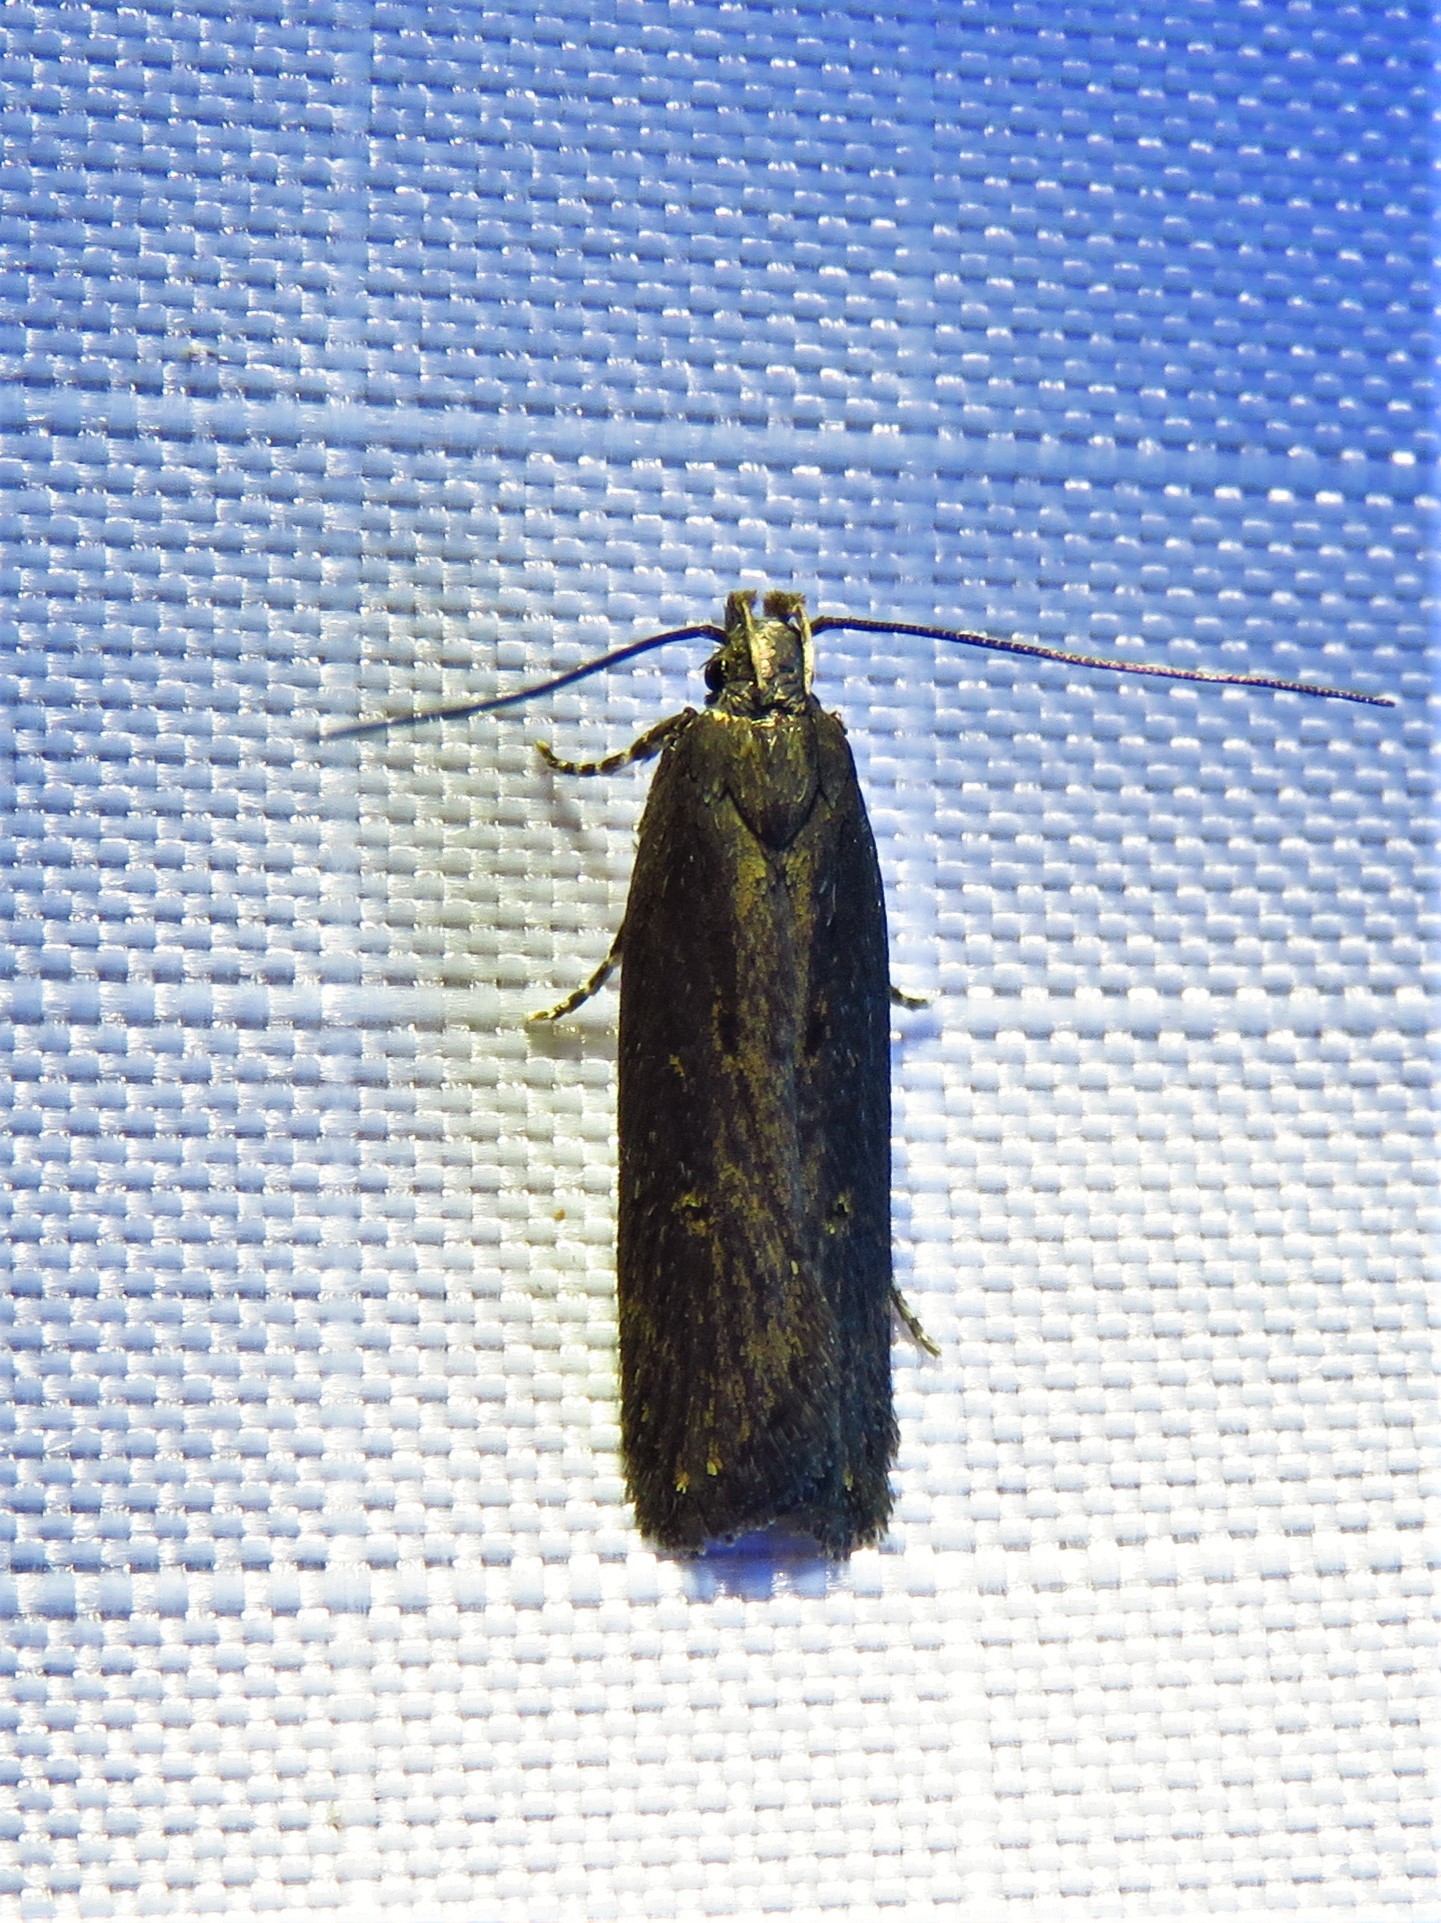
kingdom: Animalia
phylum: Arthropoda
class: Insecta
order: Lepidoptera
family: Gelechiidae
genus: Chionodes
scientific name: Chionodes discoocellella
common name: Eye-ringed chionodes moth
